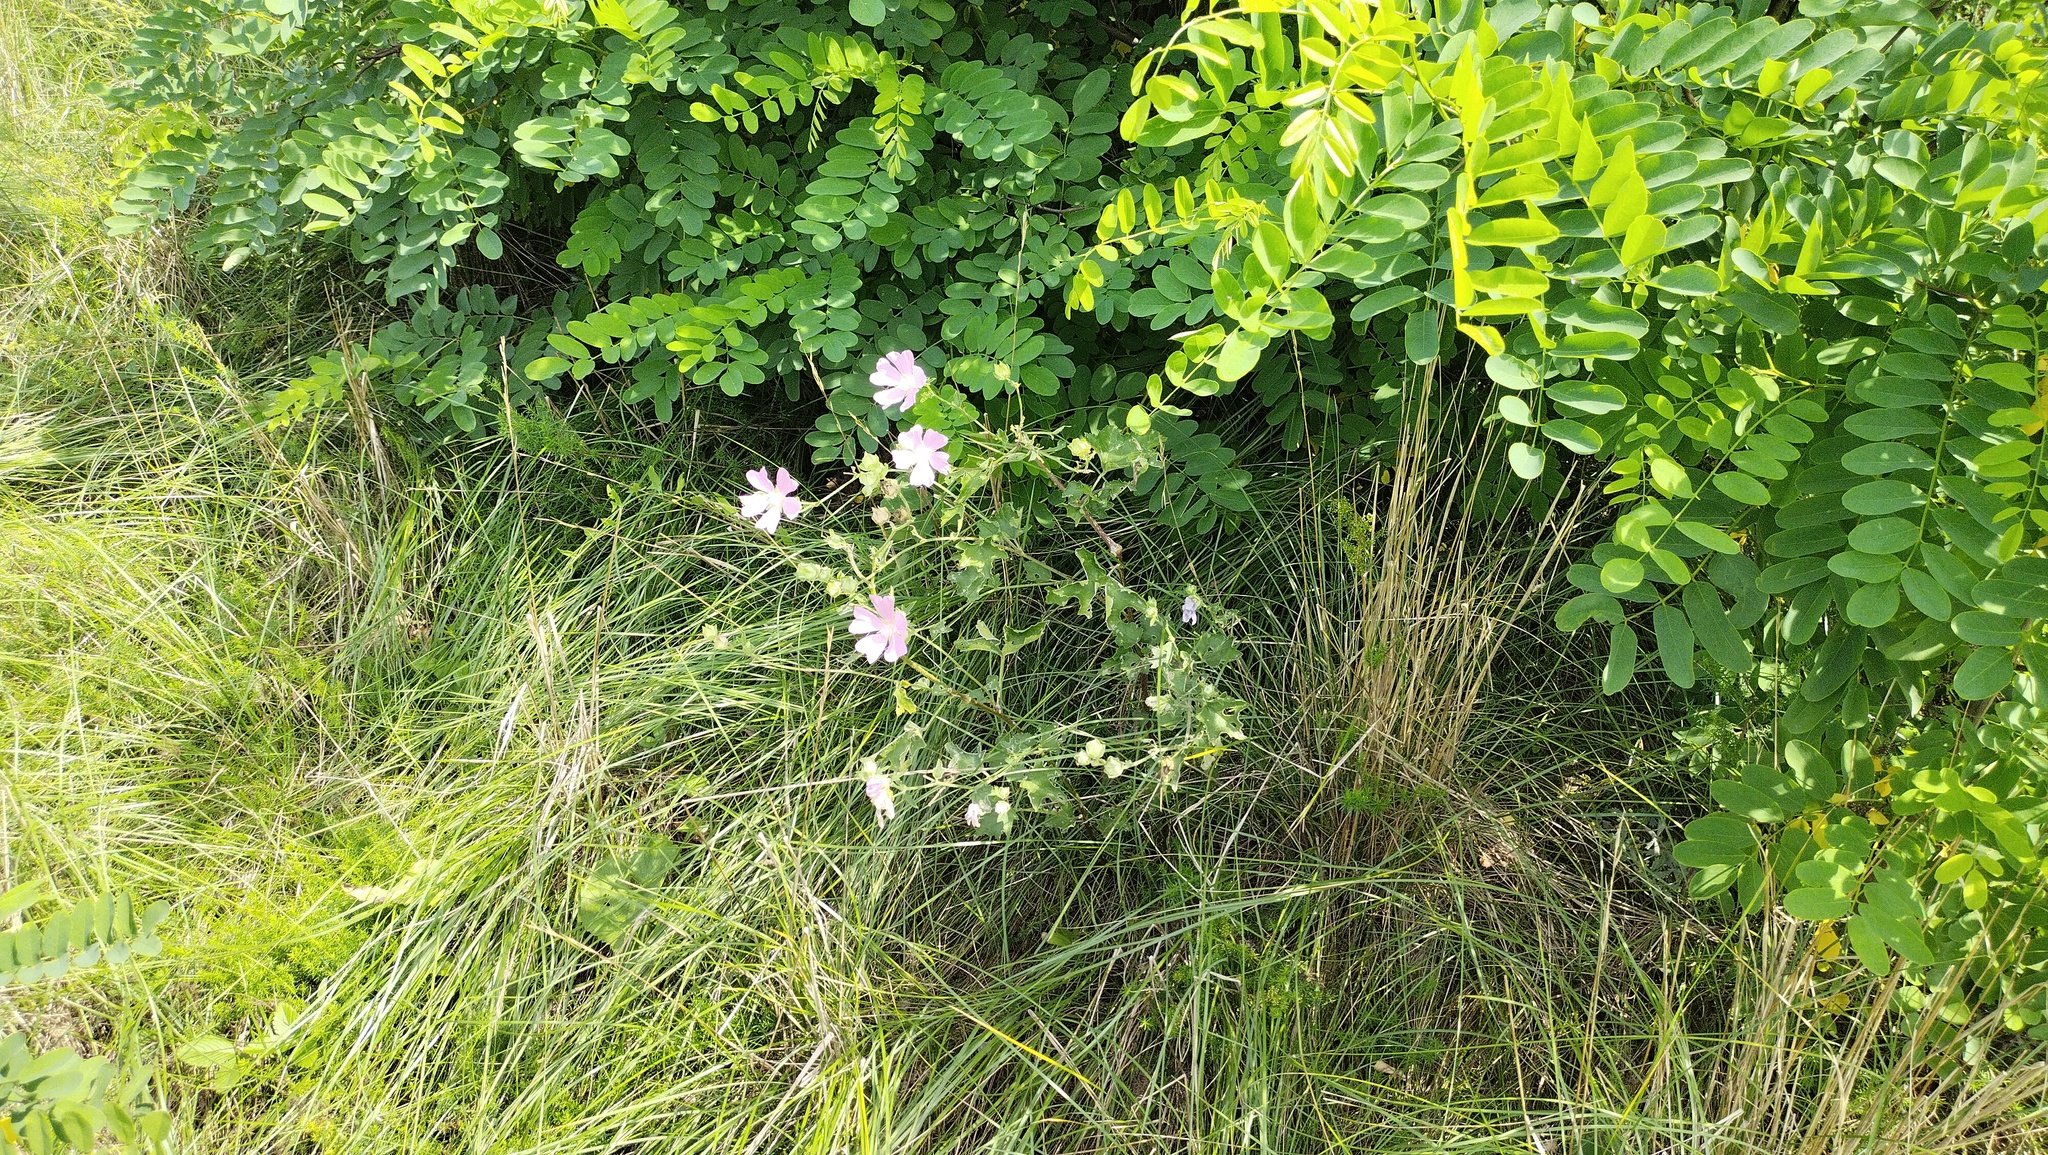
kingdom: Plantae
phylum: Tracheophyta
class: Magnoliopsida
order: Malvales
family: Malvaceae
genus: Malva
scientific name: Malva thuringiaca
